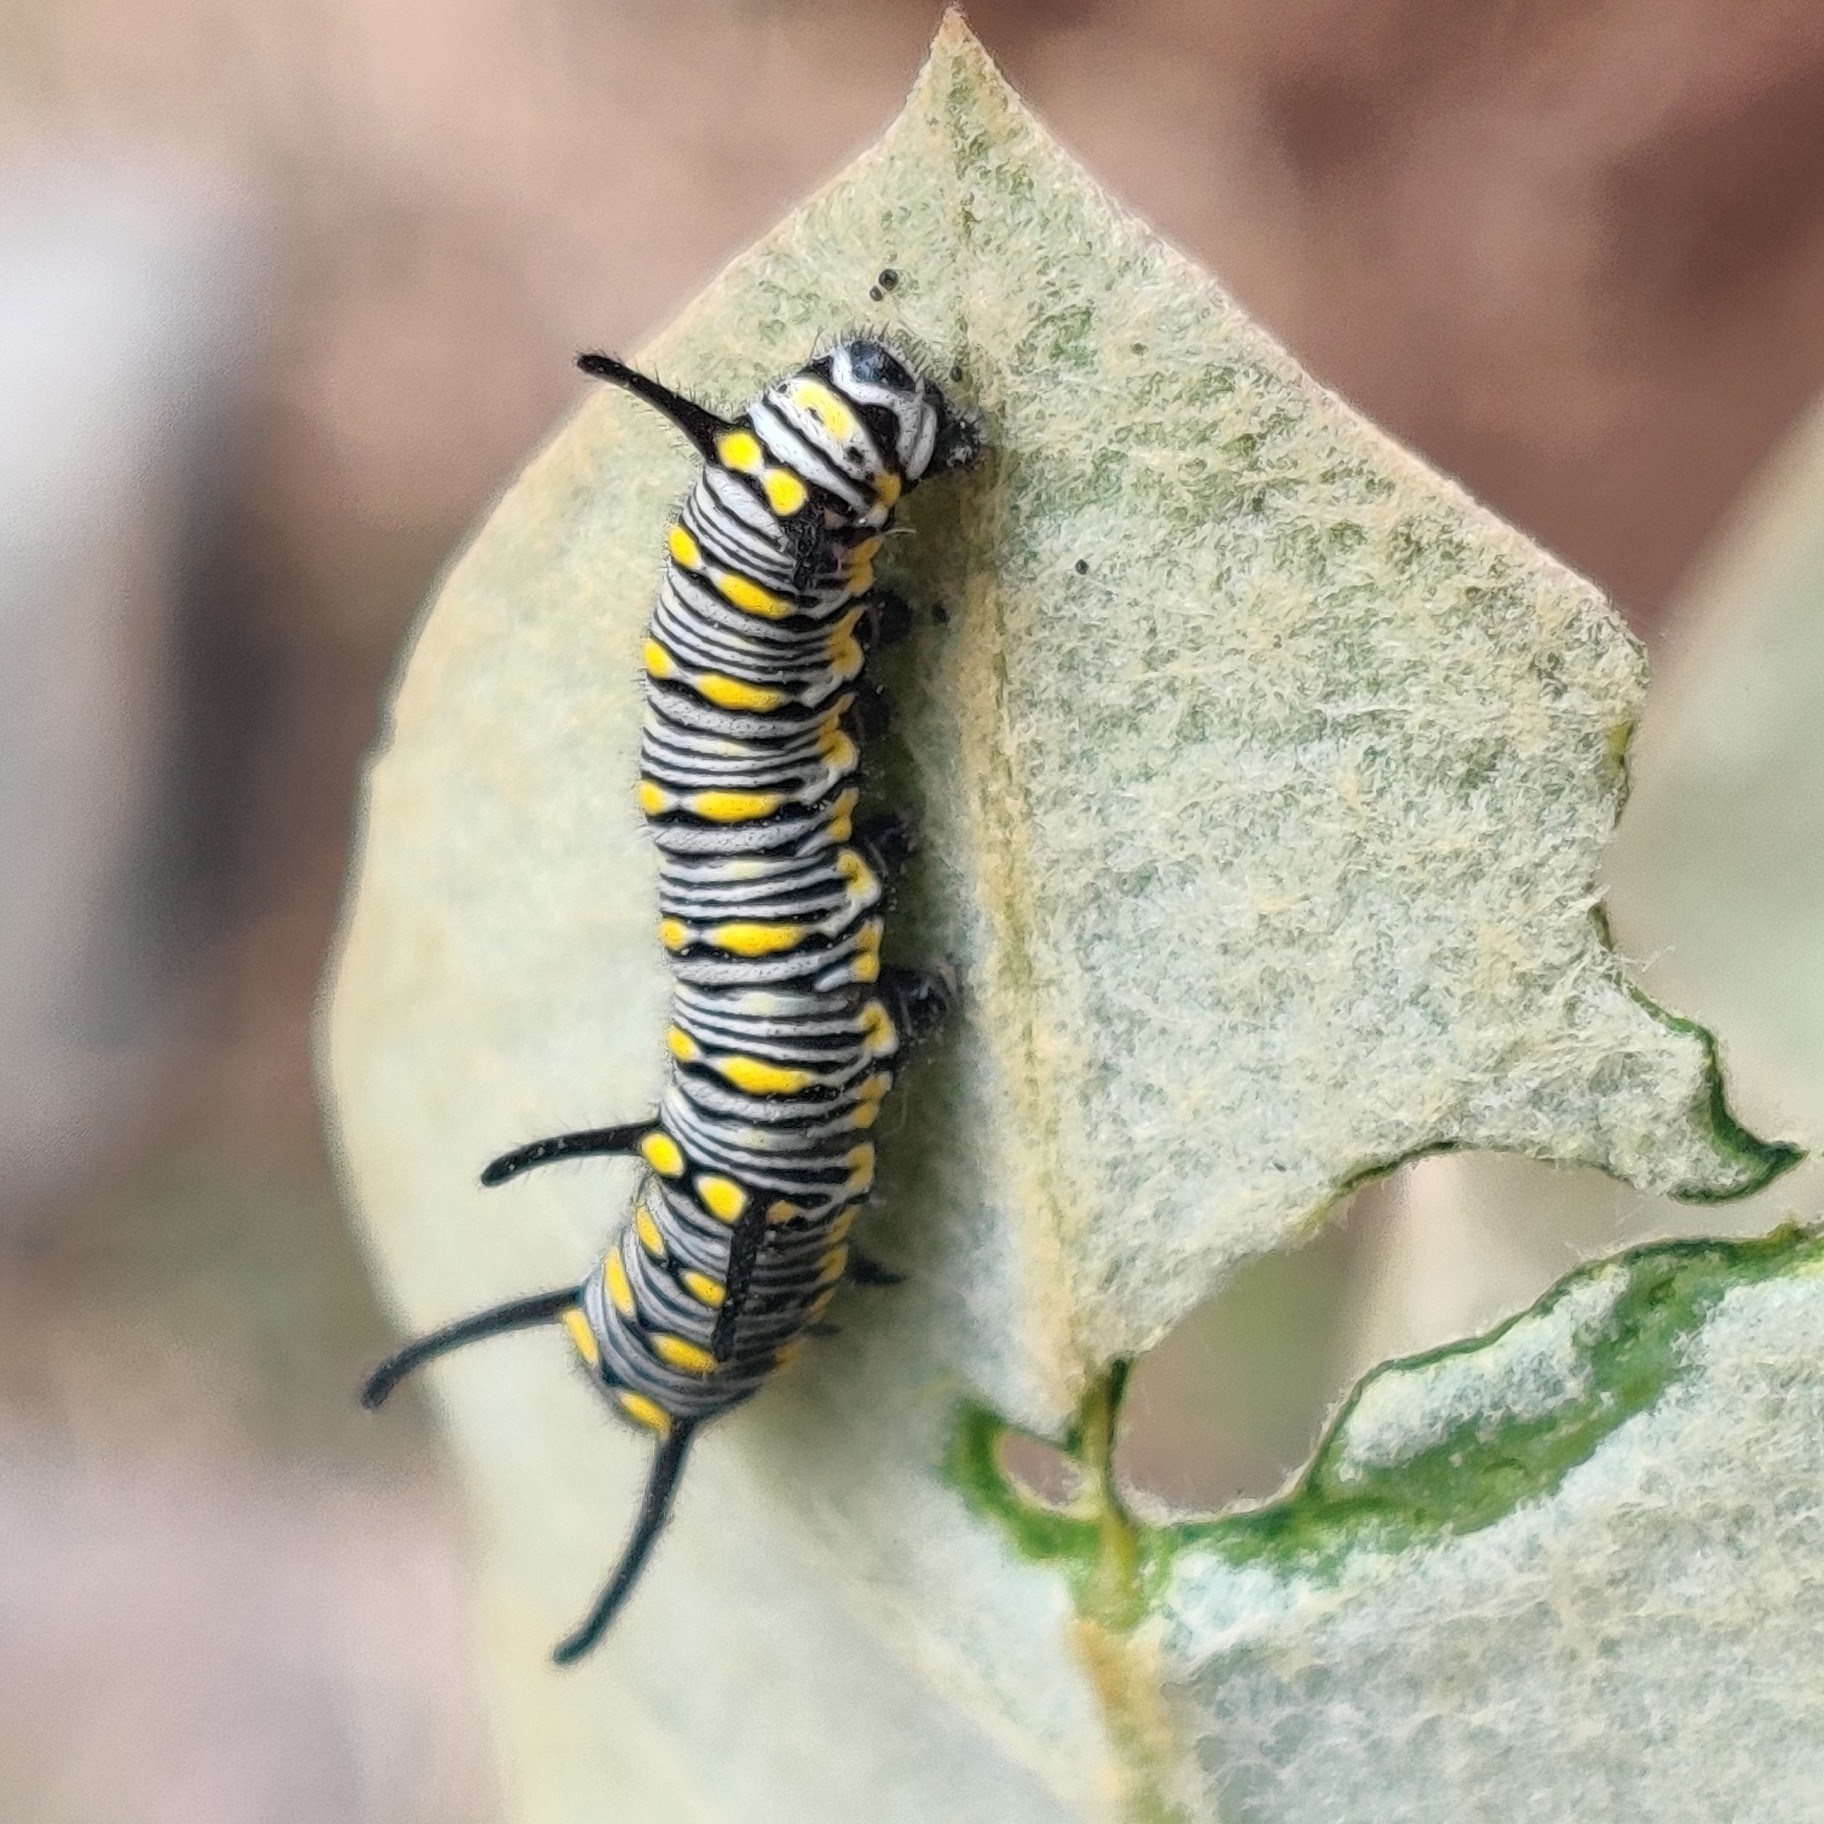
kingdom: Animalia
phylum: Arthropoda
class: Insecta
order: Lepidoptera
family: Nymphalidae
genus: Danaus
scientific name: Danaus chrysippus
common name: Plain tiger
